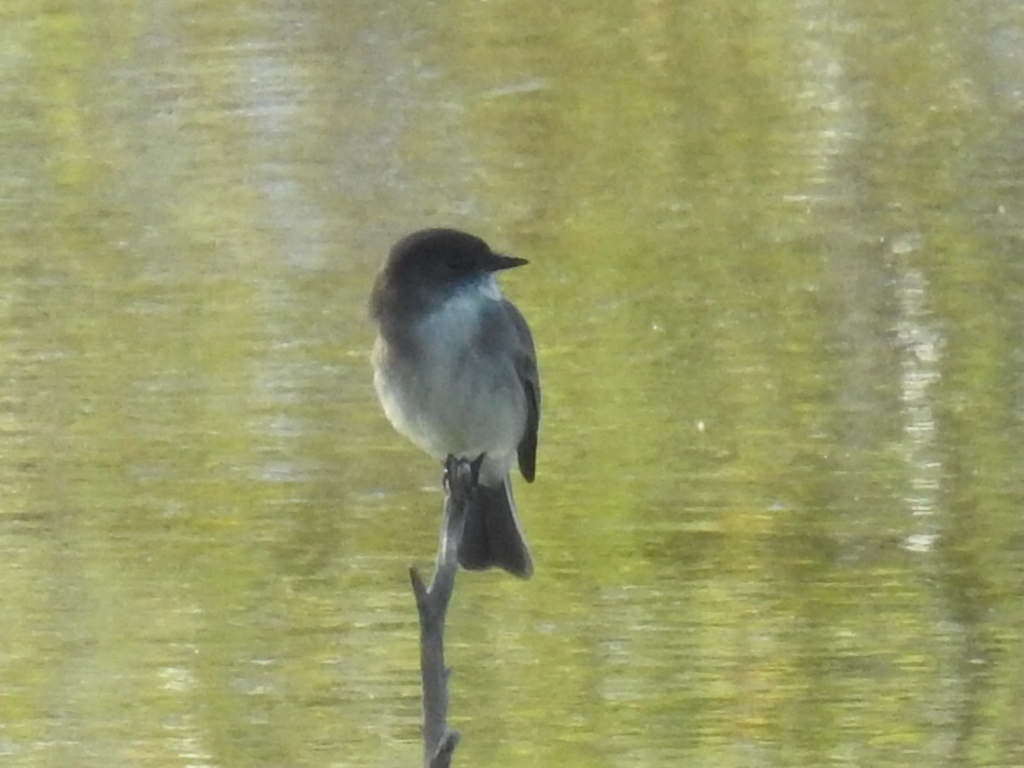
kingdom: Animalia
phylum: Chordata
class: Aves
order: Passeriformes
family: Tyrannidae
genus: Sayornis
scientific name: Sayornis phoebe
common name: Eastern phoebe
